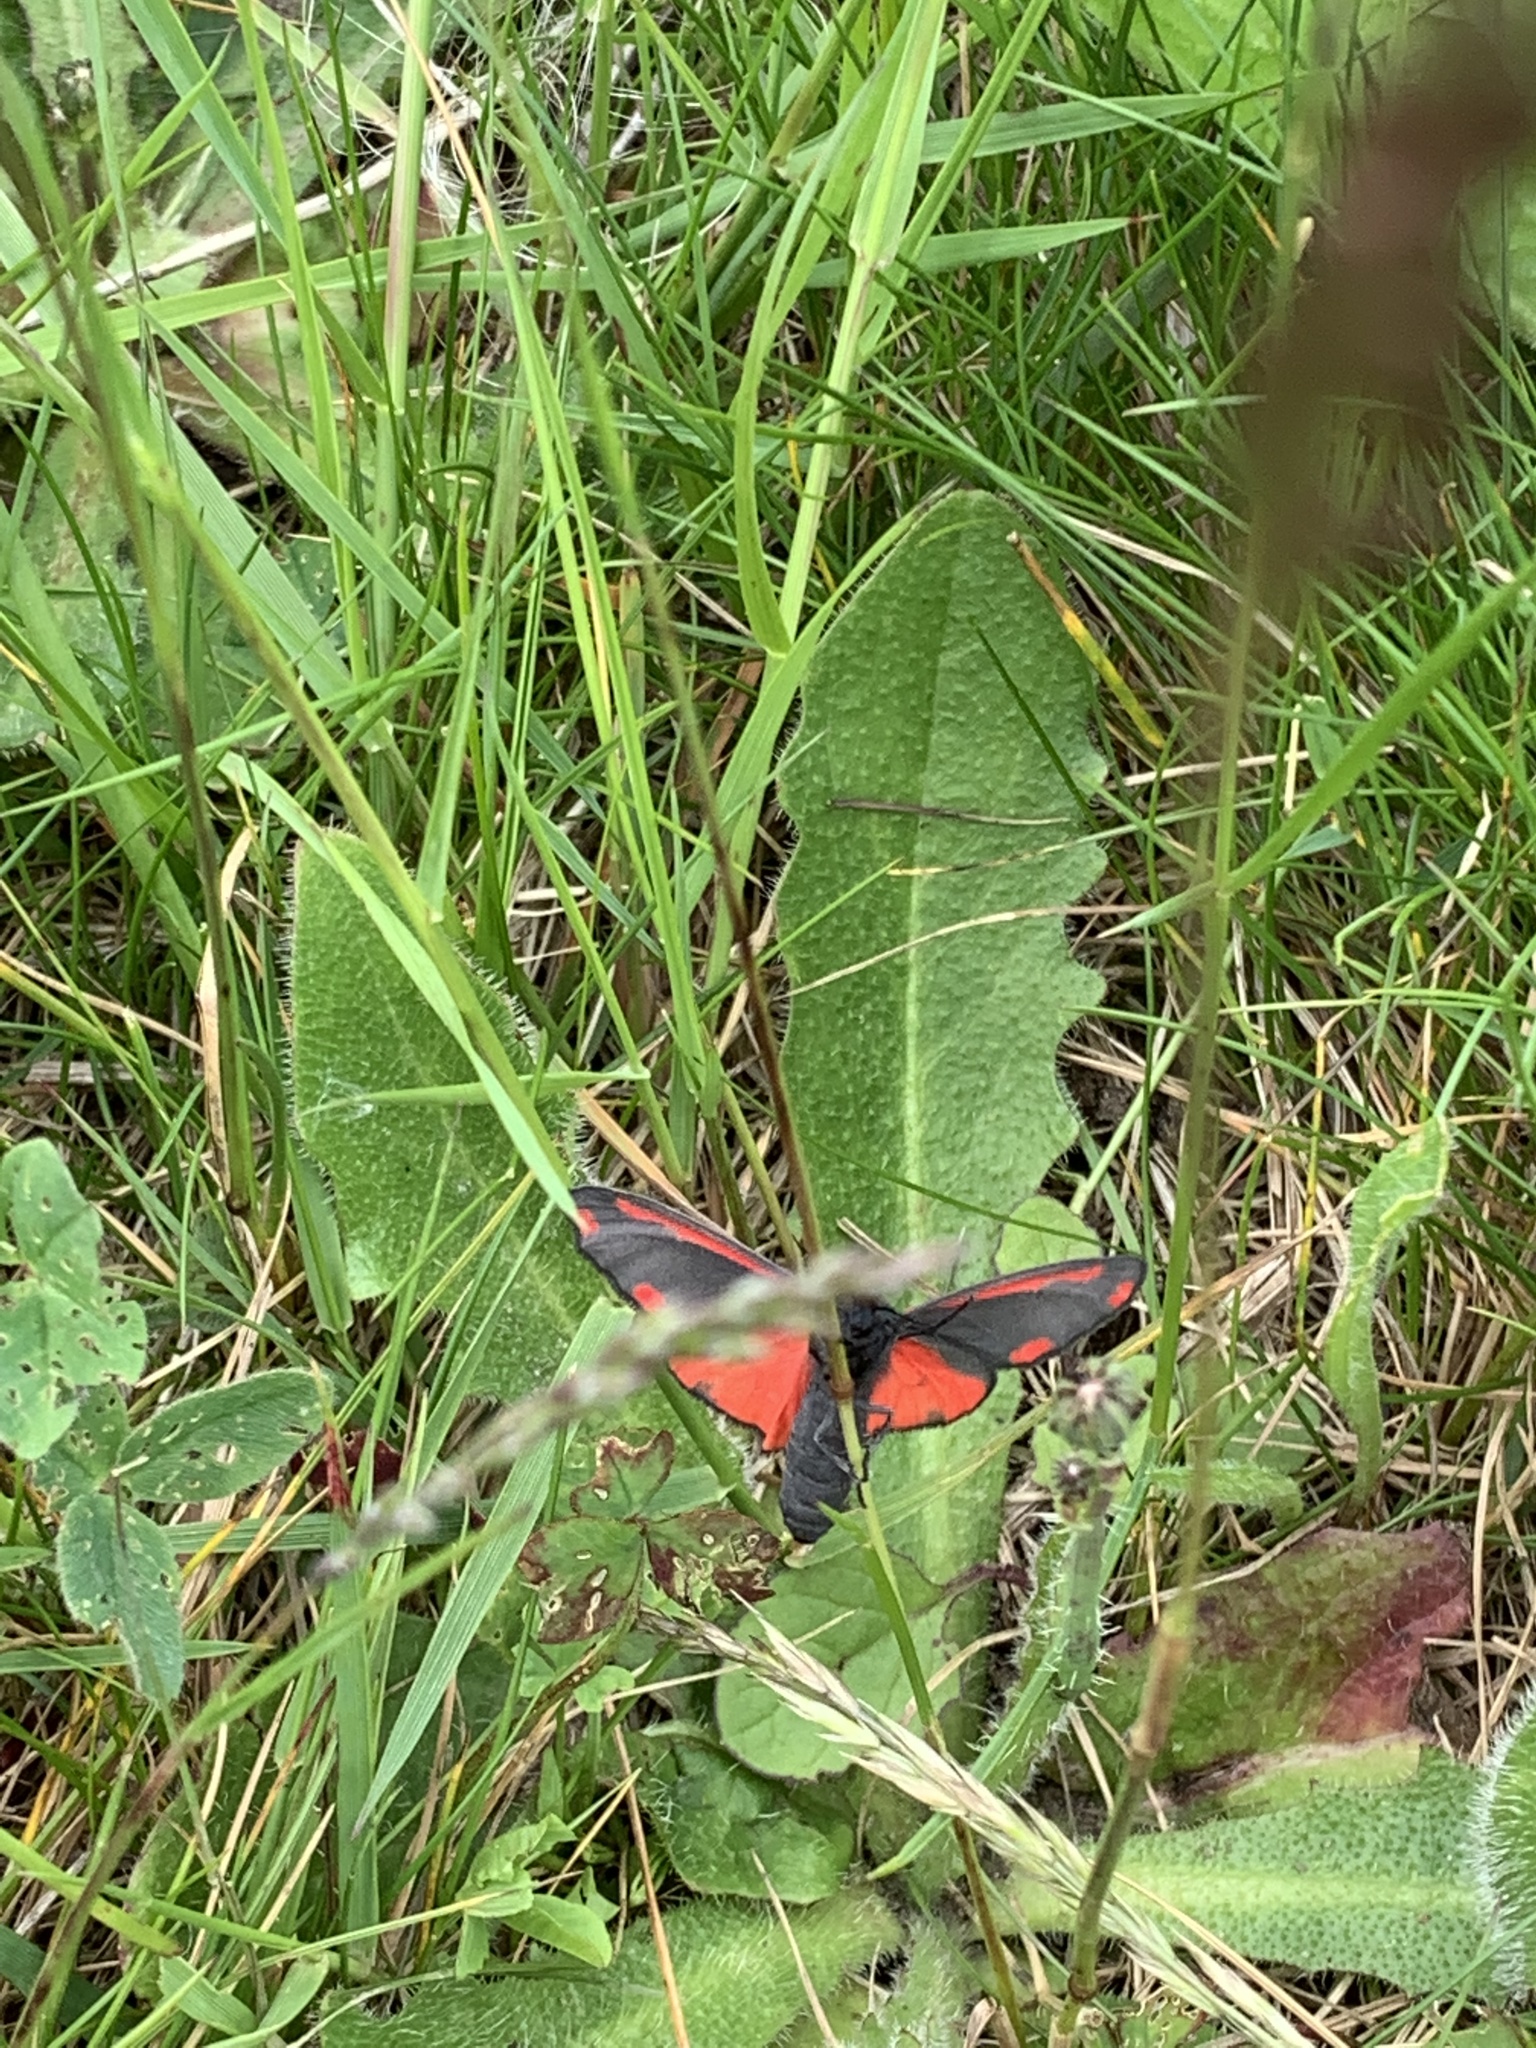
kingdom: Animalia
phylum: Arthropoda
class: Insecta
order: Lepidoptera
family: Erebidae
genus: Tyria
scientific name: Tyria jacobaeae
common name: Cinnabar
